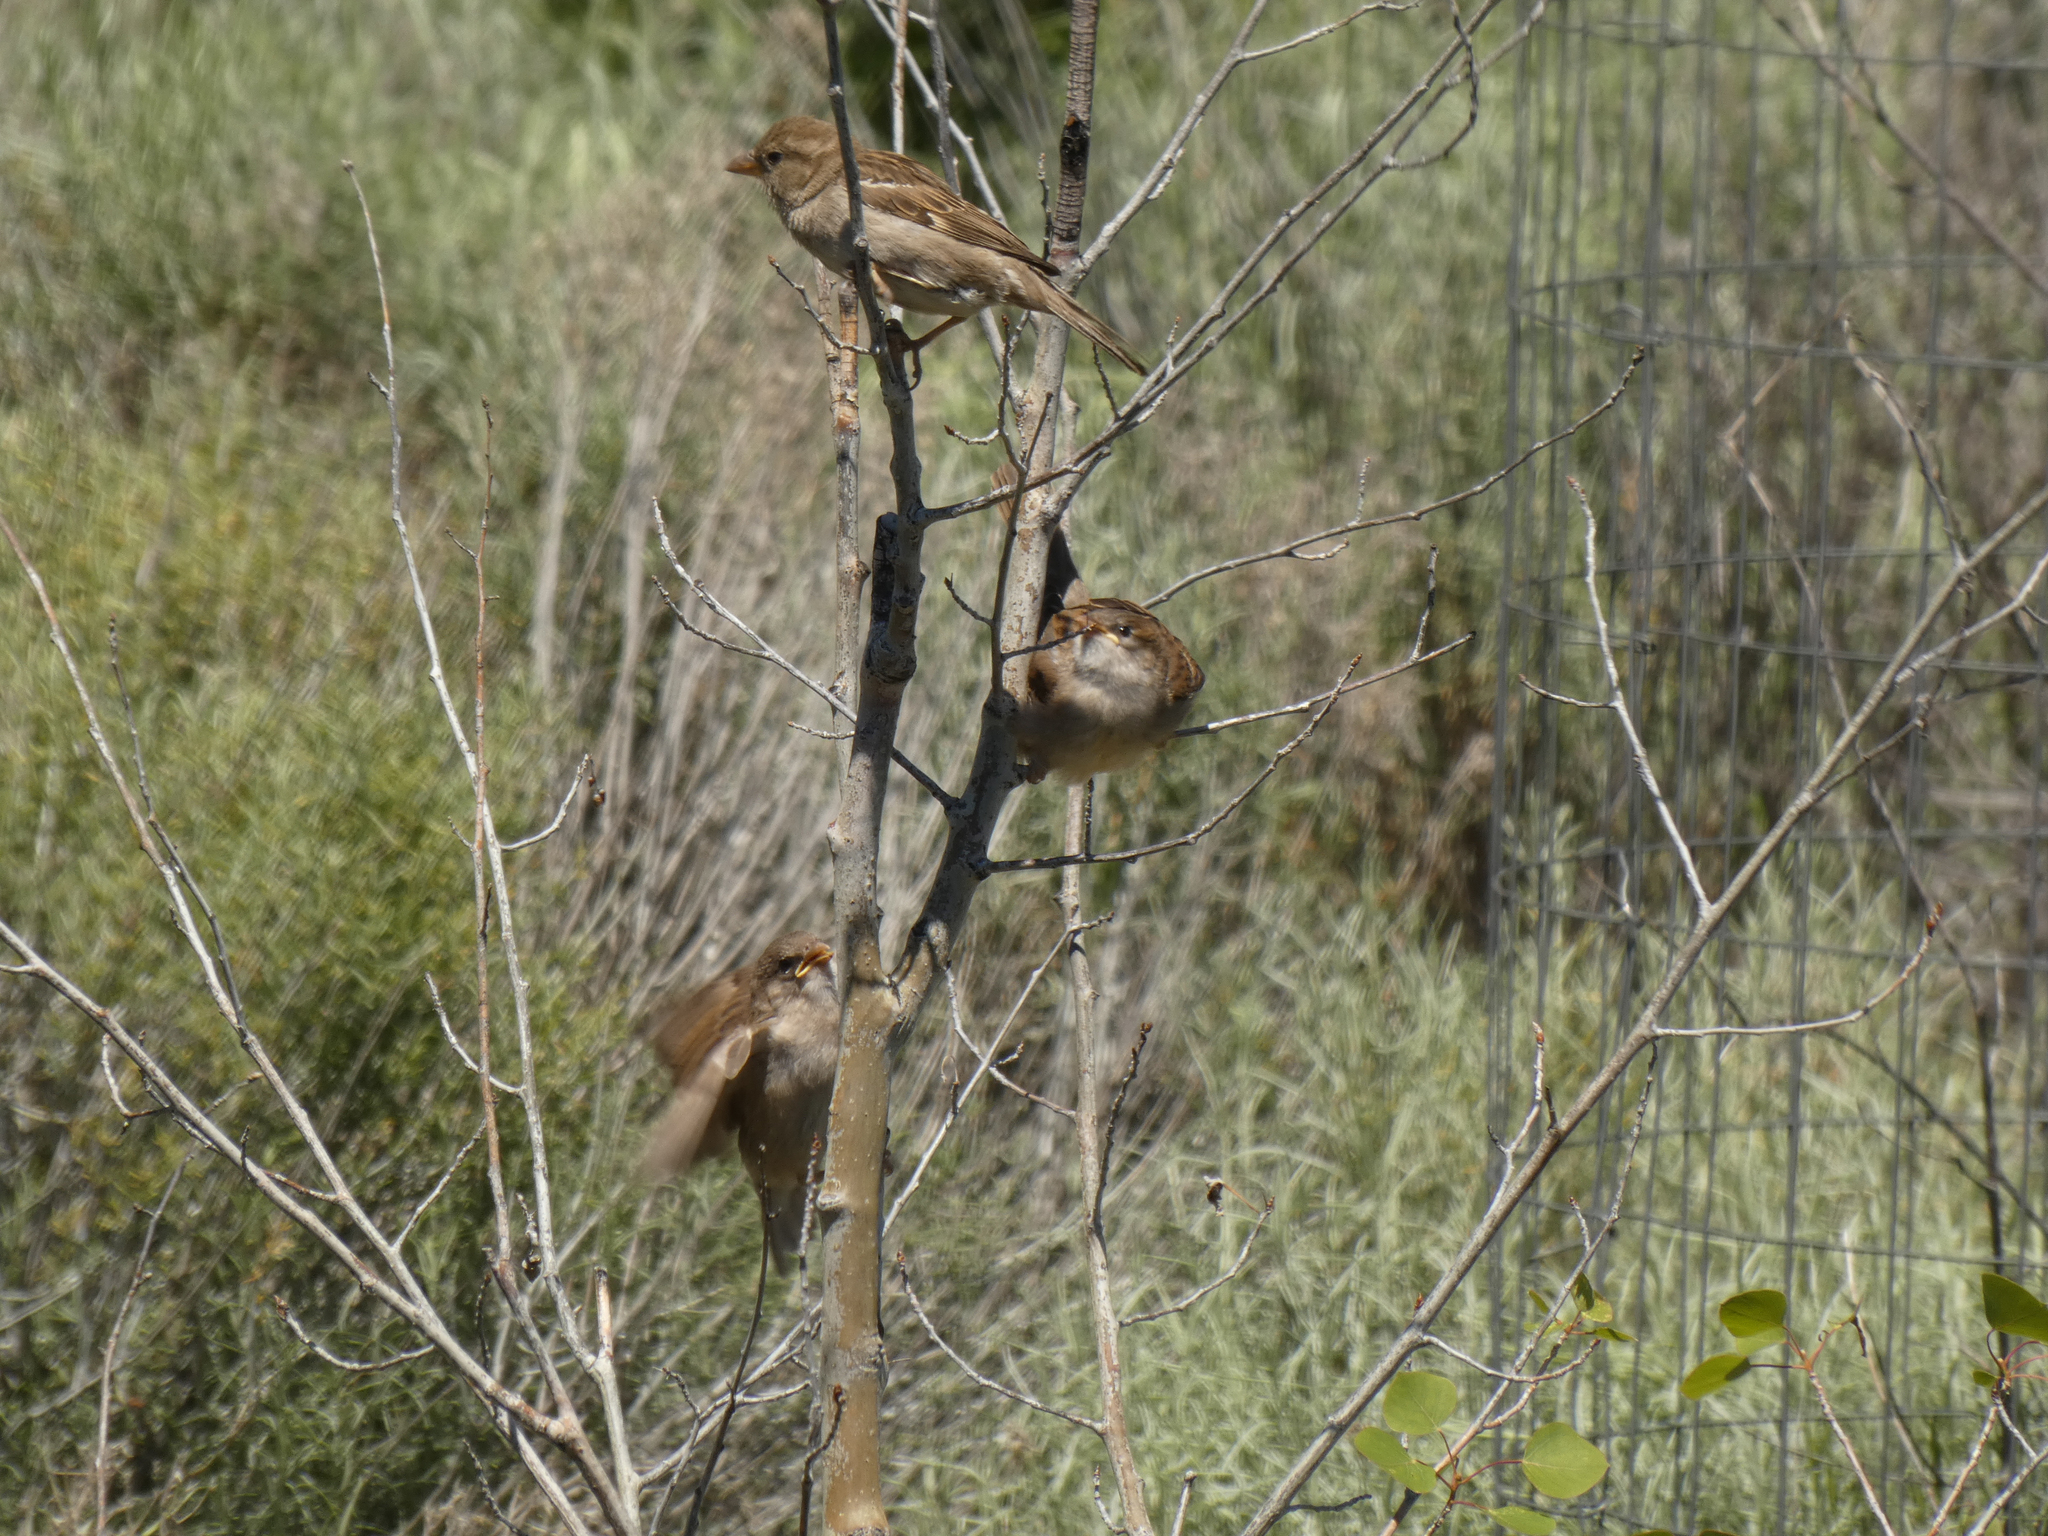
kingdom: Animalia
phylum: Chordata
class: Aves
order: Passeriformes
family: Passeridae
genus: Passer
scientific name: Passer domesticus
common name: House sparrow
